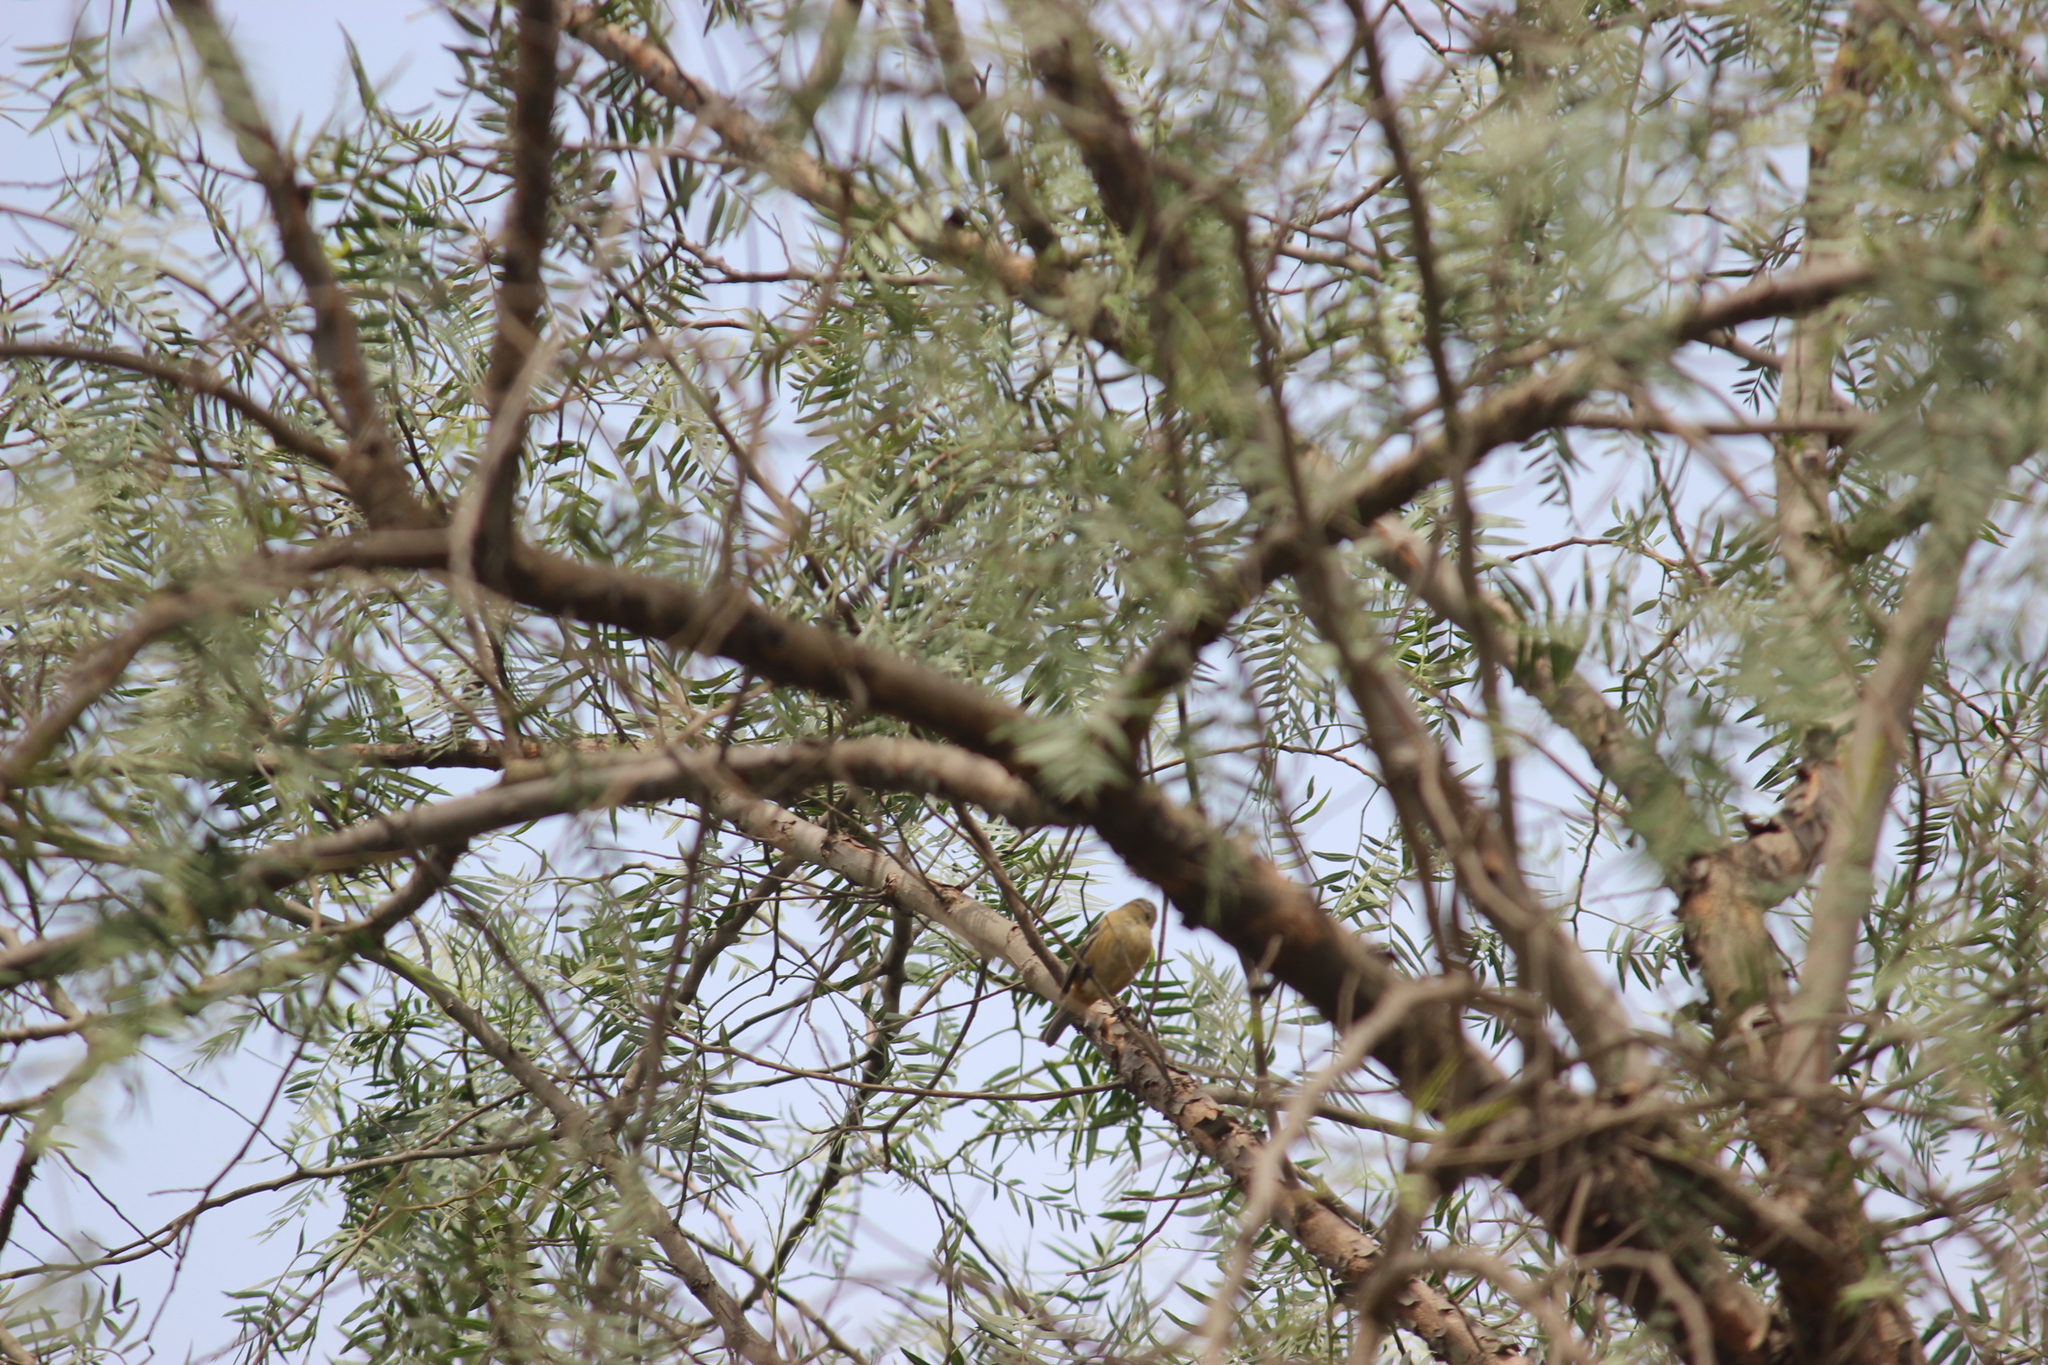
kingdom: Animalia
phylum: Chordata
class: Aves
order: Passeriformes
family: Thraupidae
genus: Conirostrum
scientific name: Conirostrum cinereum
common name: Cinereous conebill
